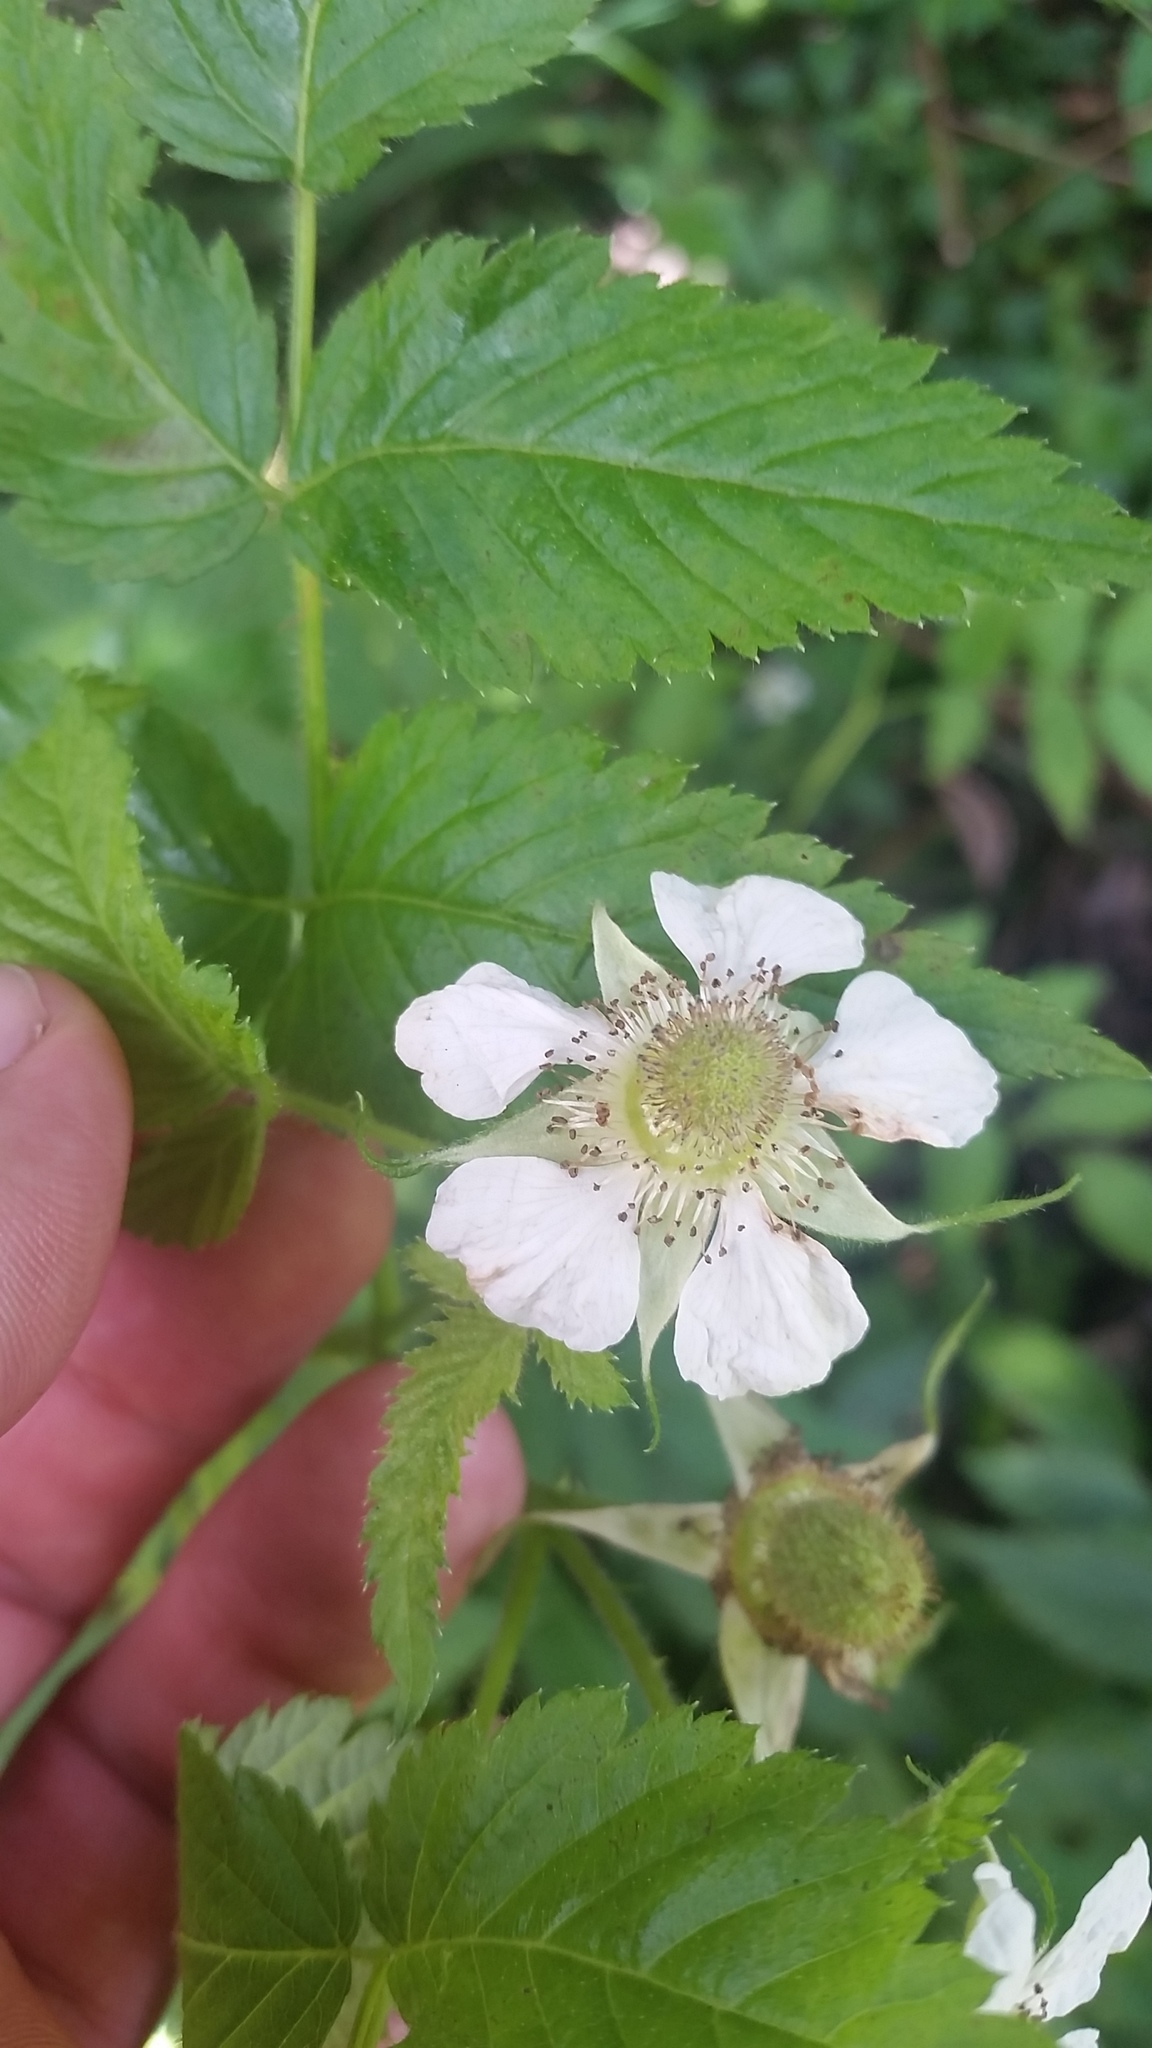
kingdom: Plantae
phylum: Tracheophyta
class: Magnoliopsida
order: Rosales
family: Rosaceae
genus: Rubus
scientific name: Rubus rosifolius
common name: Roseleaf raspberry
